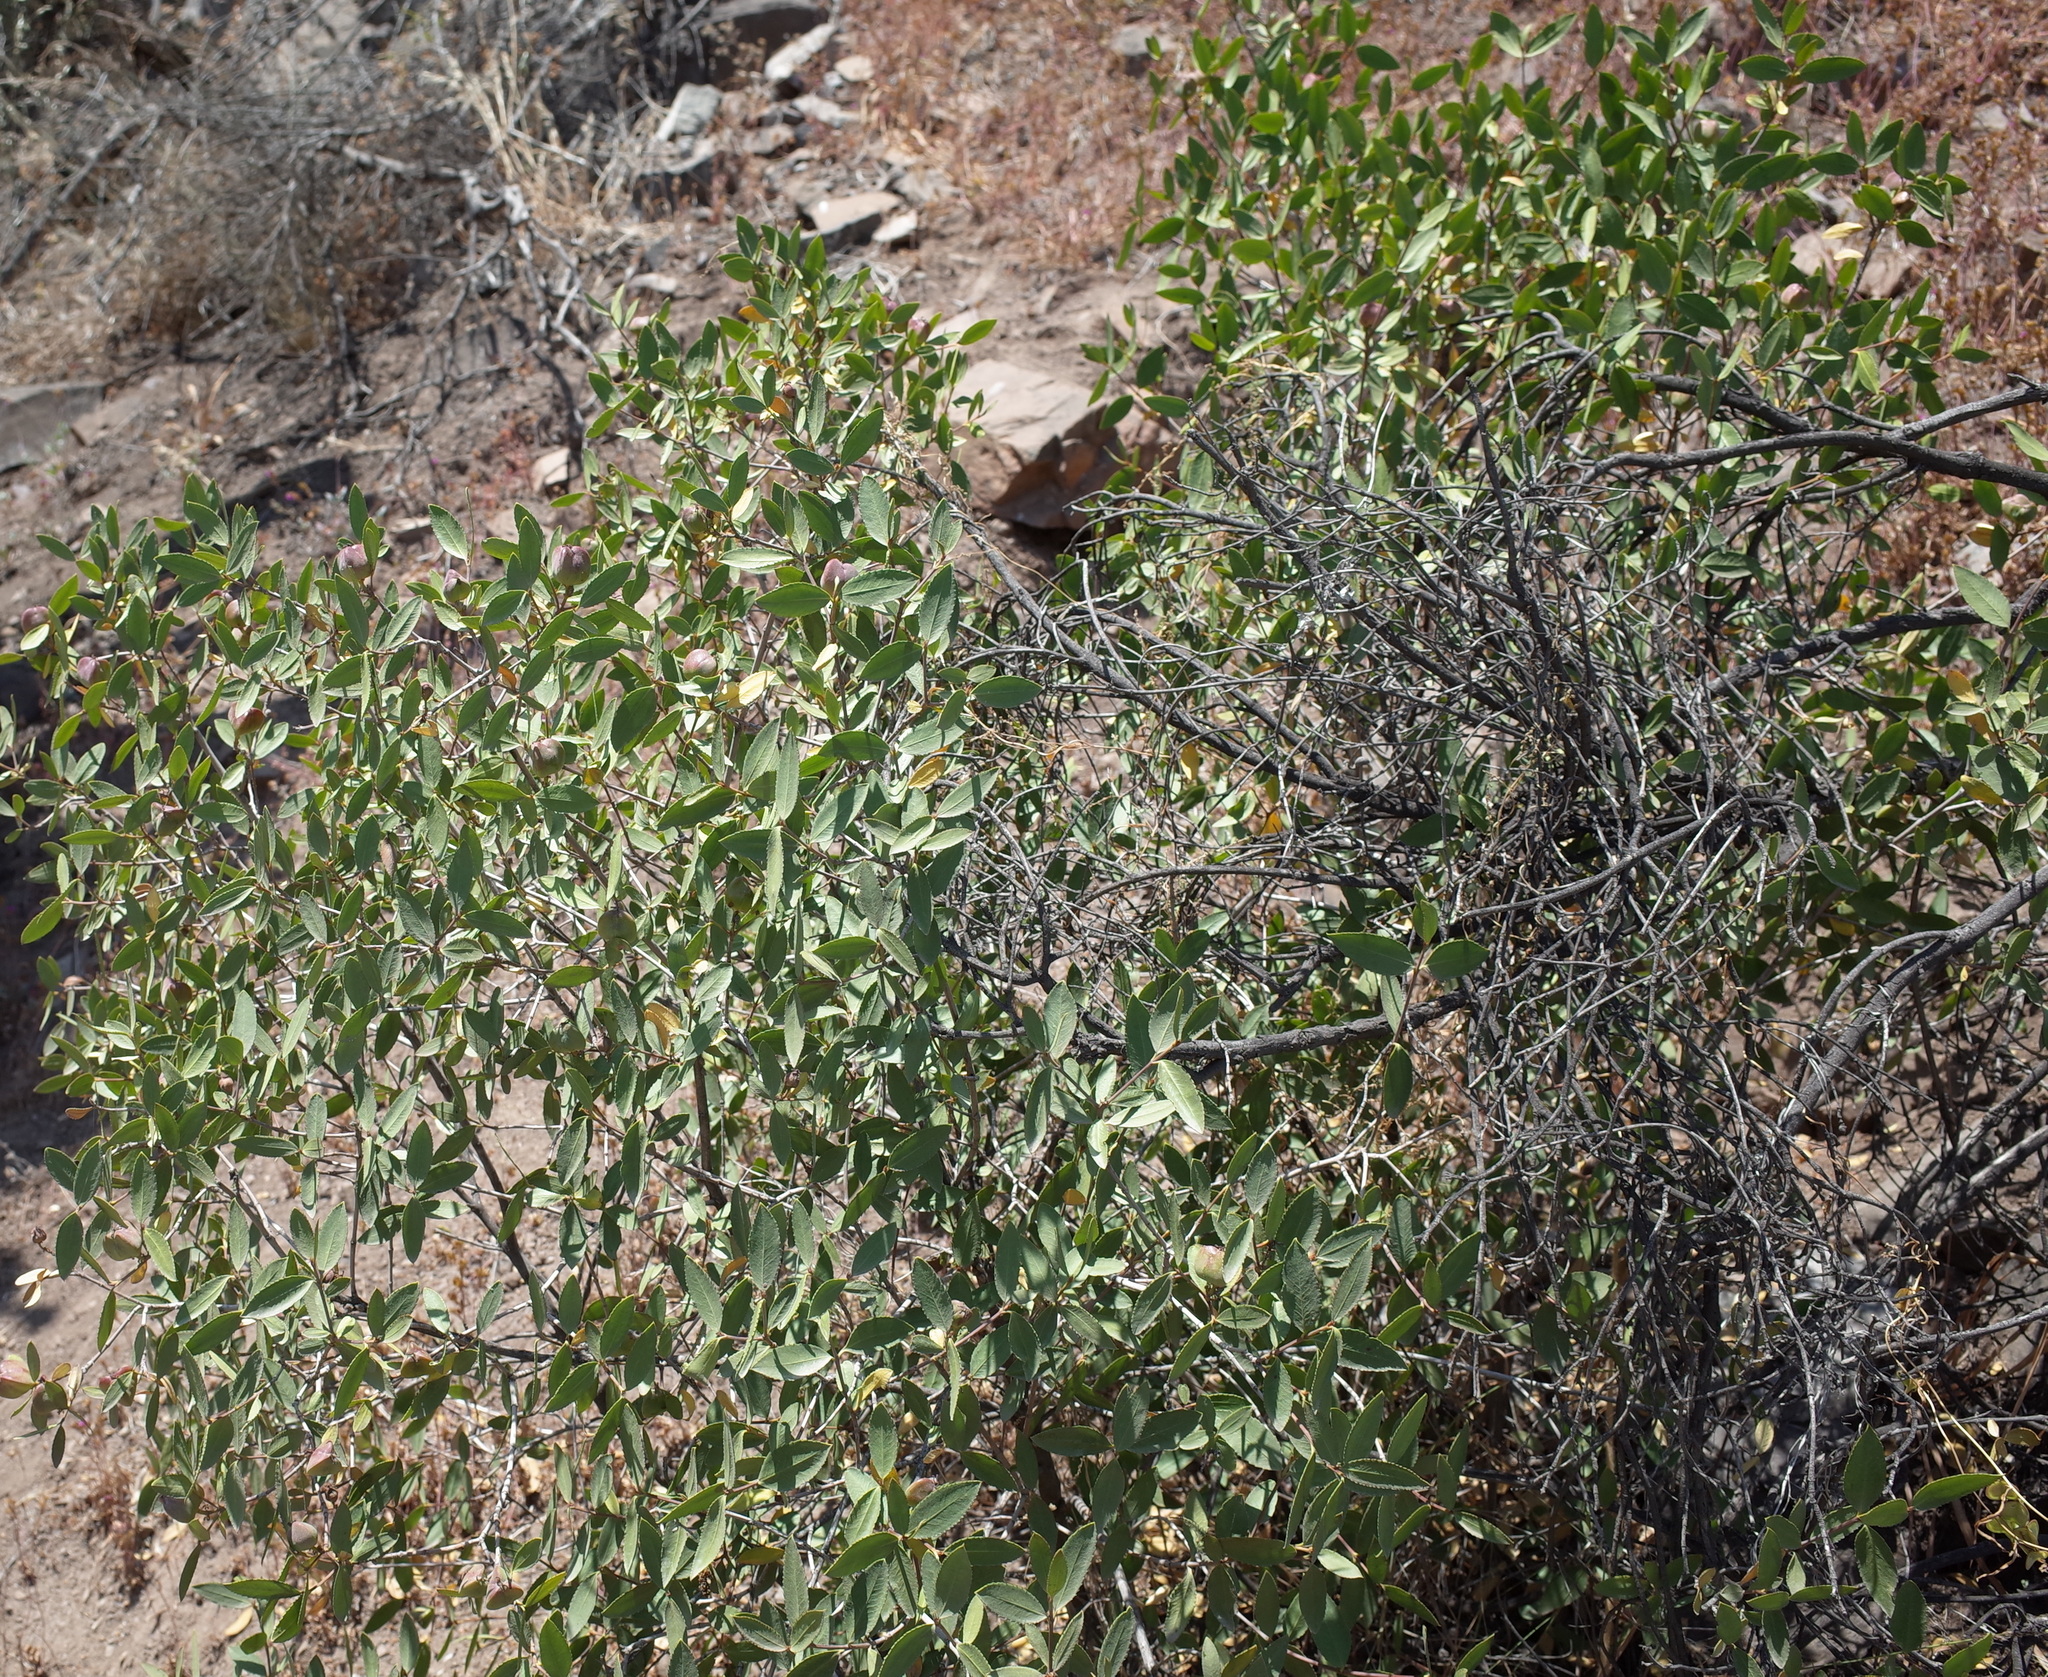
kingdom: Plantae
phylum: Tracheophyta
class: Magnoliopsida
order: Malpighiales
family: Euphorbiaceae
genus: Colliguaja
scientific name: Colliguaja odorifera
